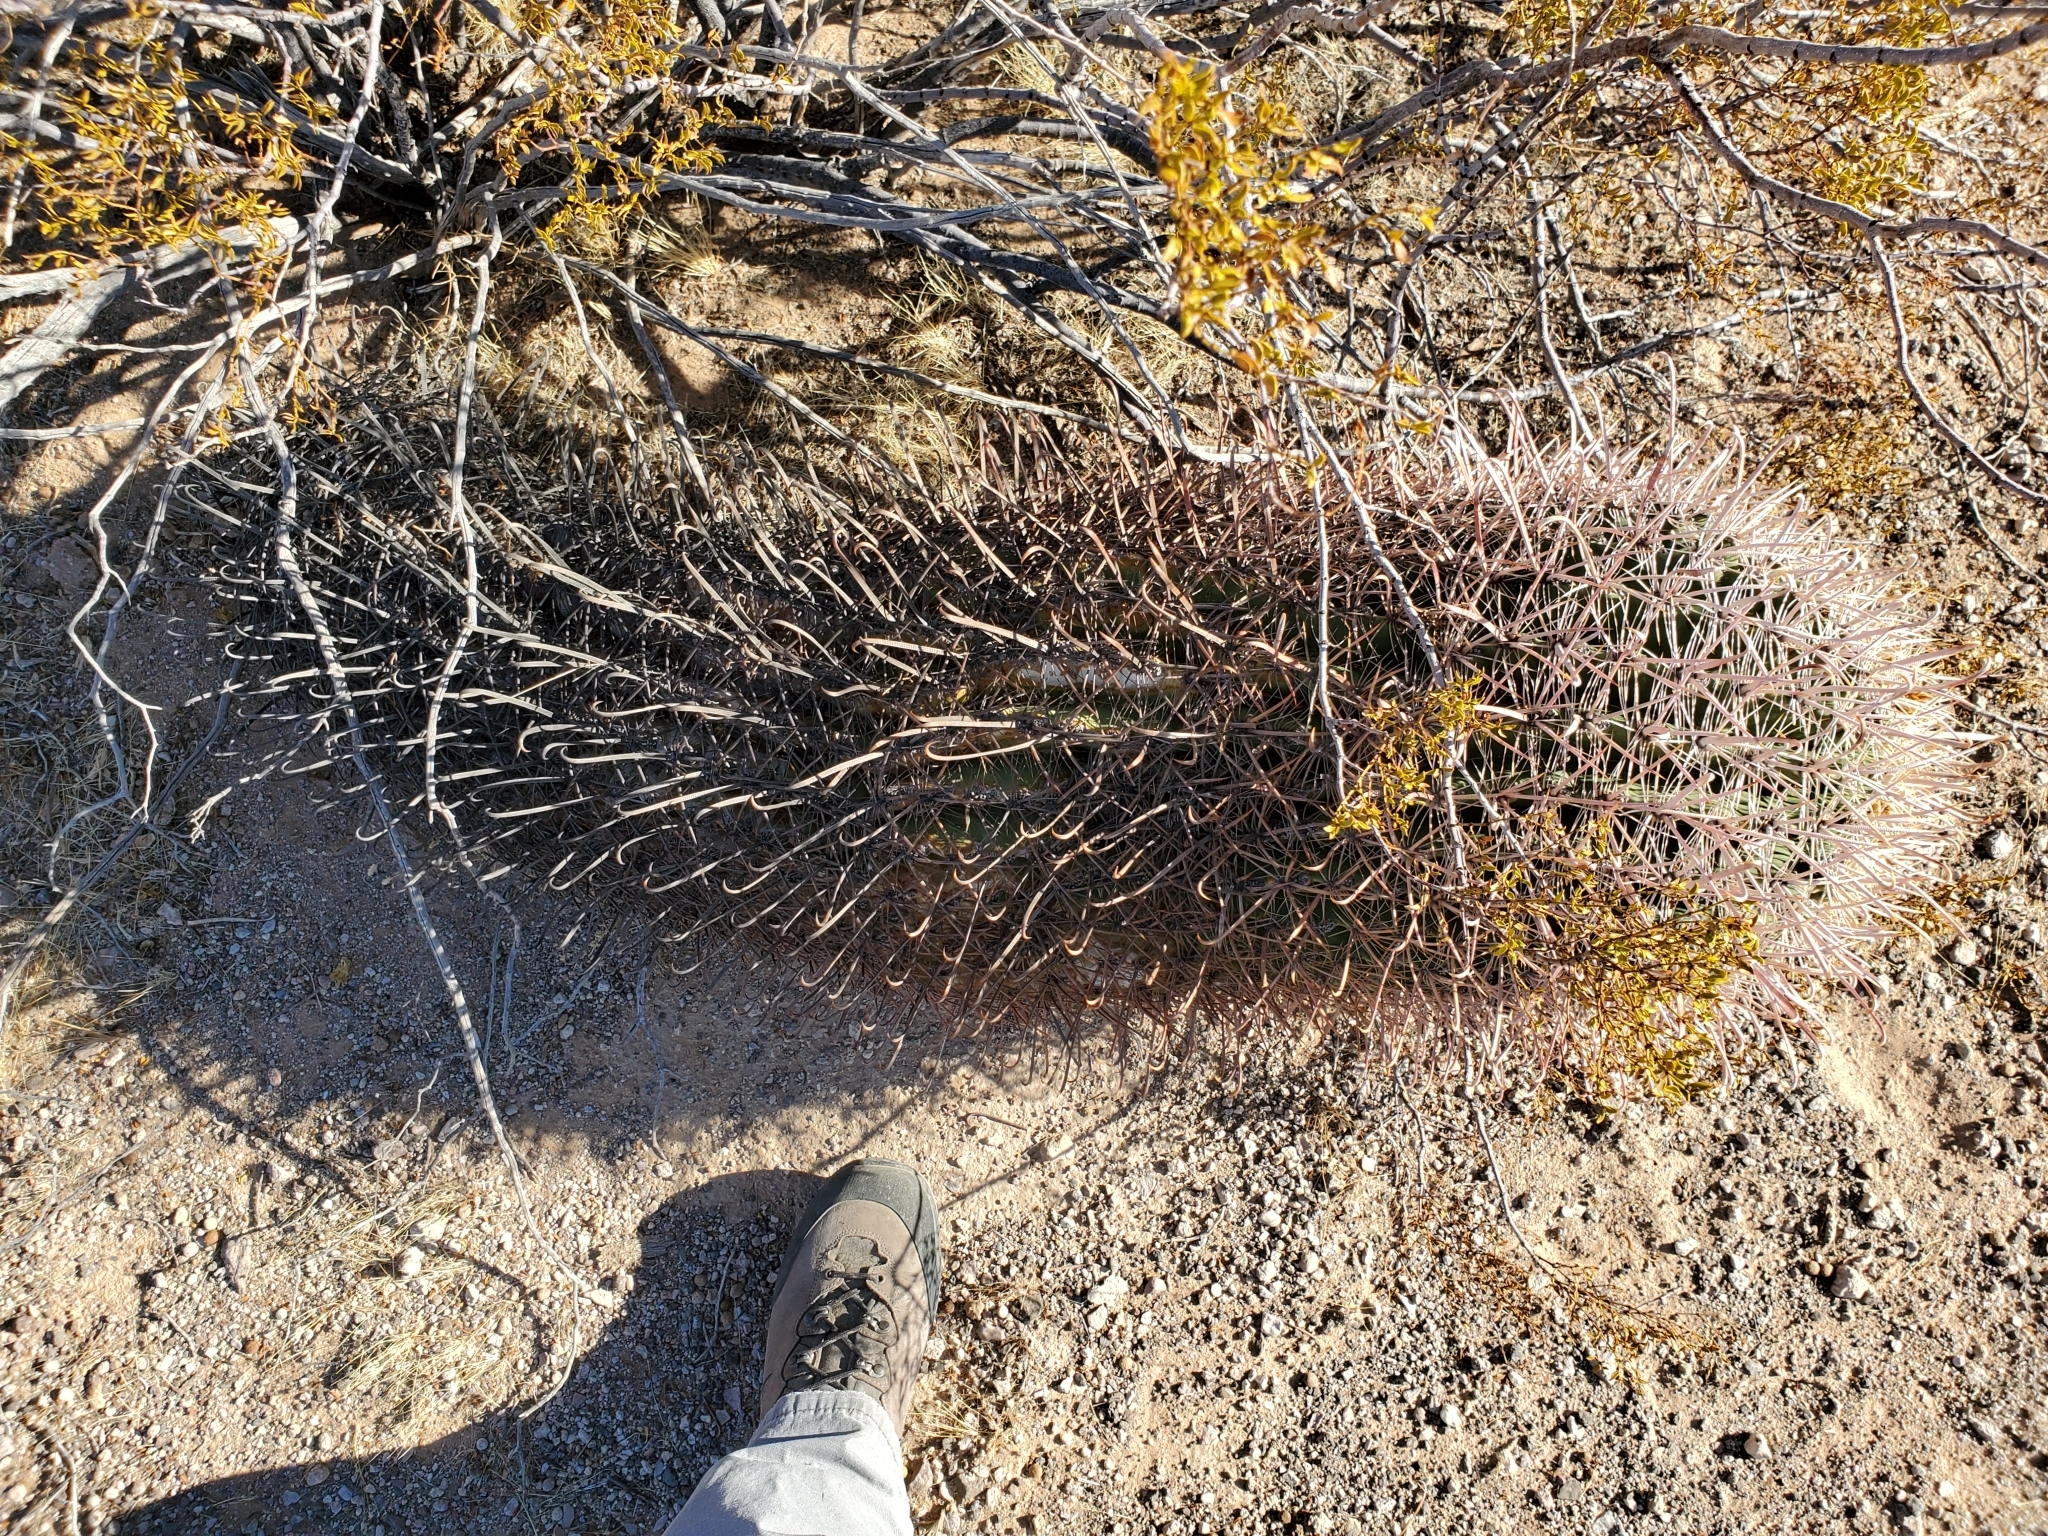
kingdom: Plantae
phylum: Tracheophyta
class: Magnoliopsida
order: Caryophyllales
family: Cactaceae
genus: Ferocactus
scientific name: Ferocactus cylindraceus
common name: California barrel cactus
